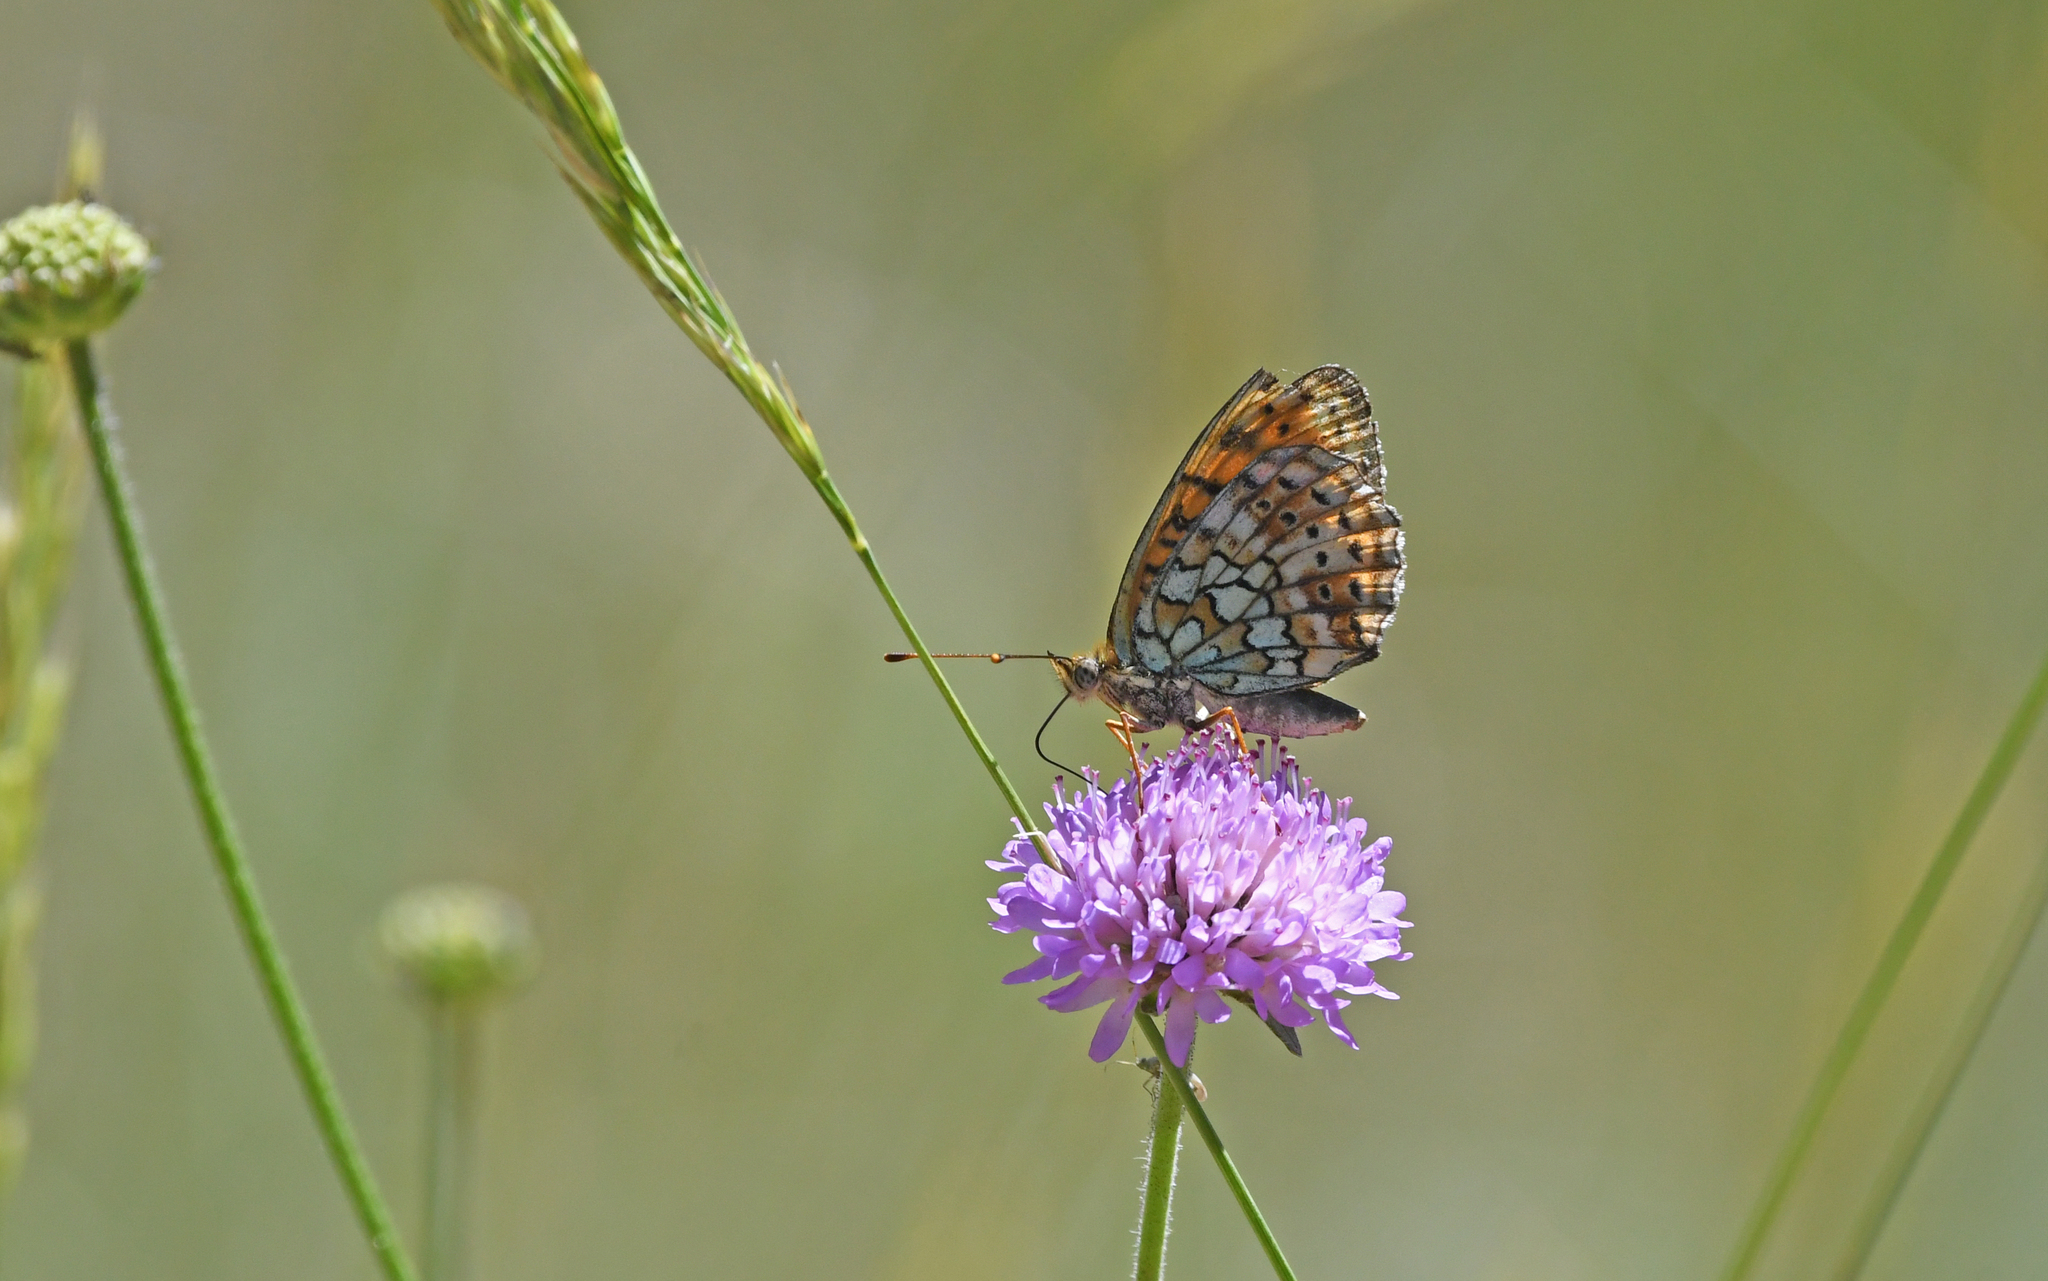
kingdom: Animalia
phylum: Arthropoda
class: Insecta
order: Lepidoptera
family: Nymphalidae
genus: Brenthis
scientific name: Brenthis hecate
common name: Twin-spot fritillary
